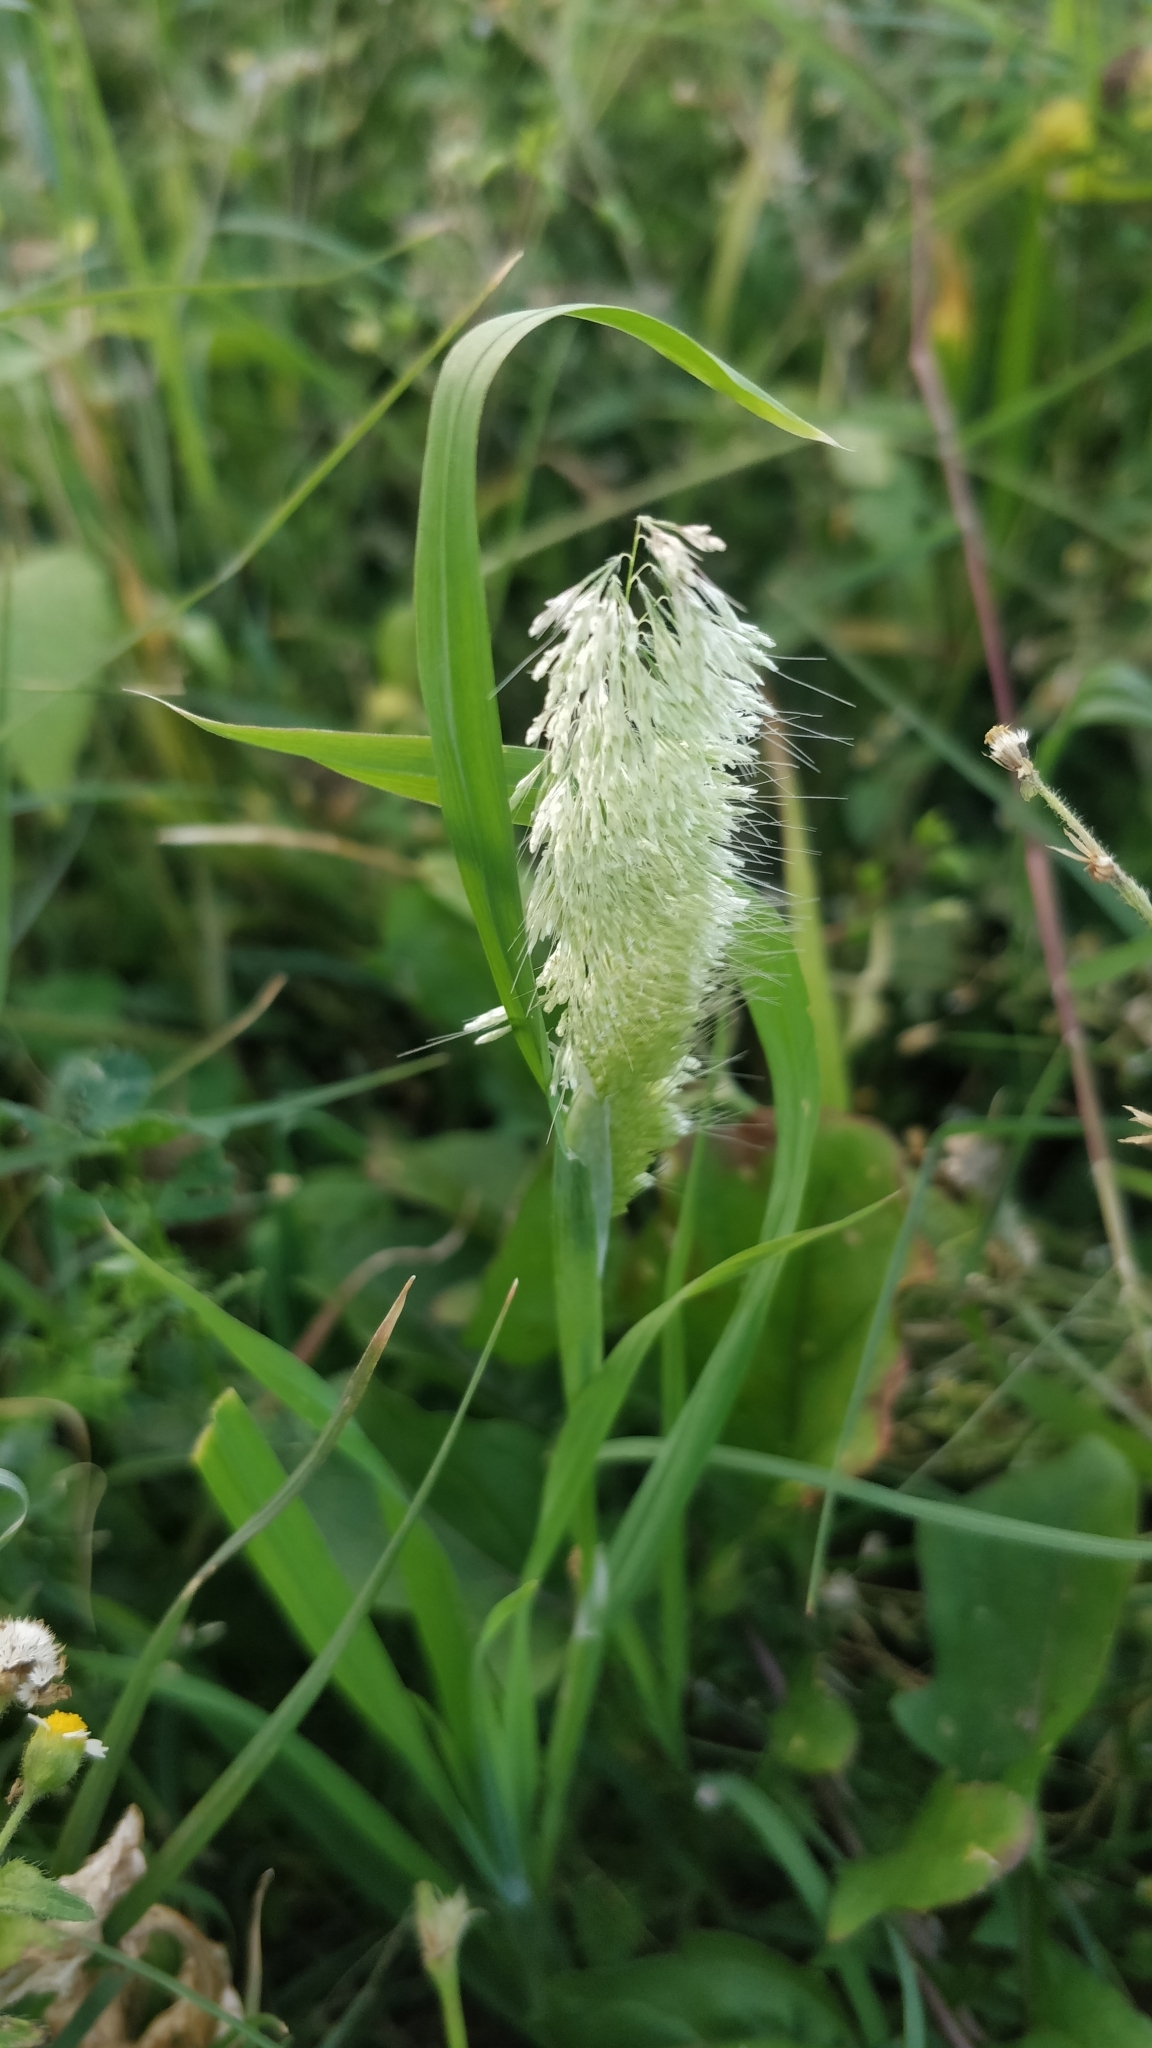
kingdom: Plantae
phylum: Tracheophyta
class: Liliopsida
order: Poales
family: Poaceae
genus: Lamarckia
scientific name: Lamarckia aurea
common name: Golden dog's-tail
